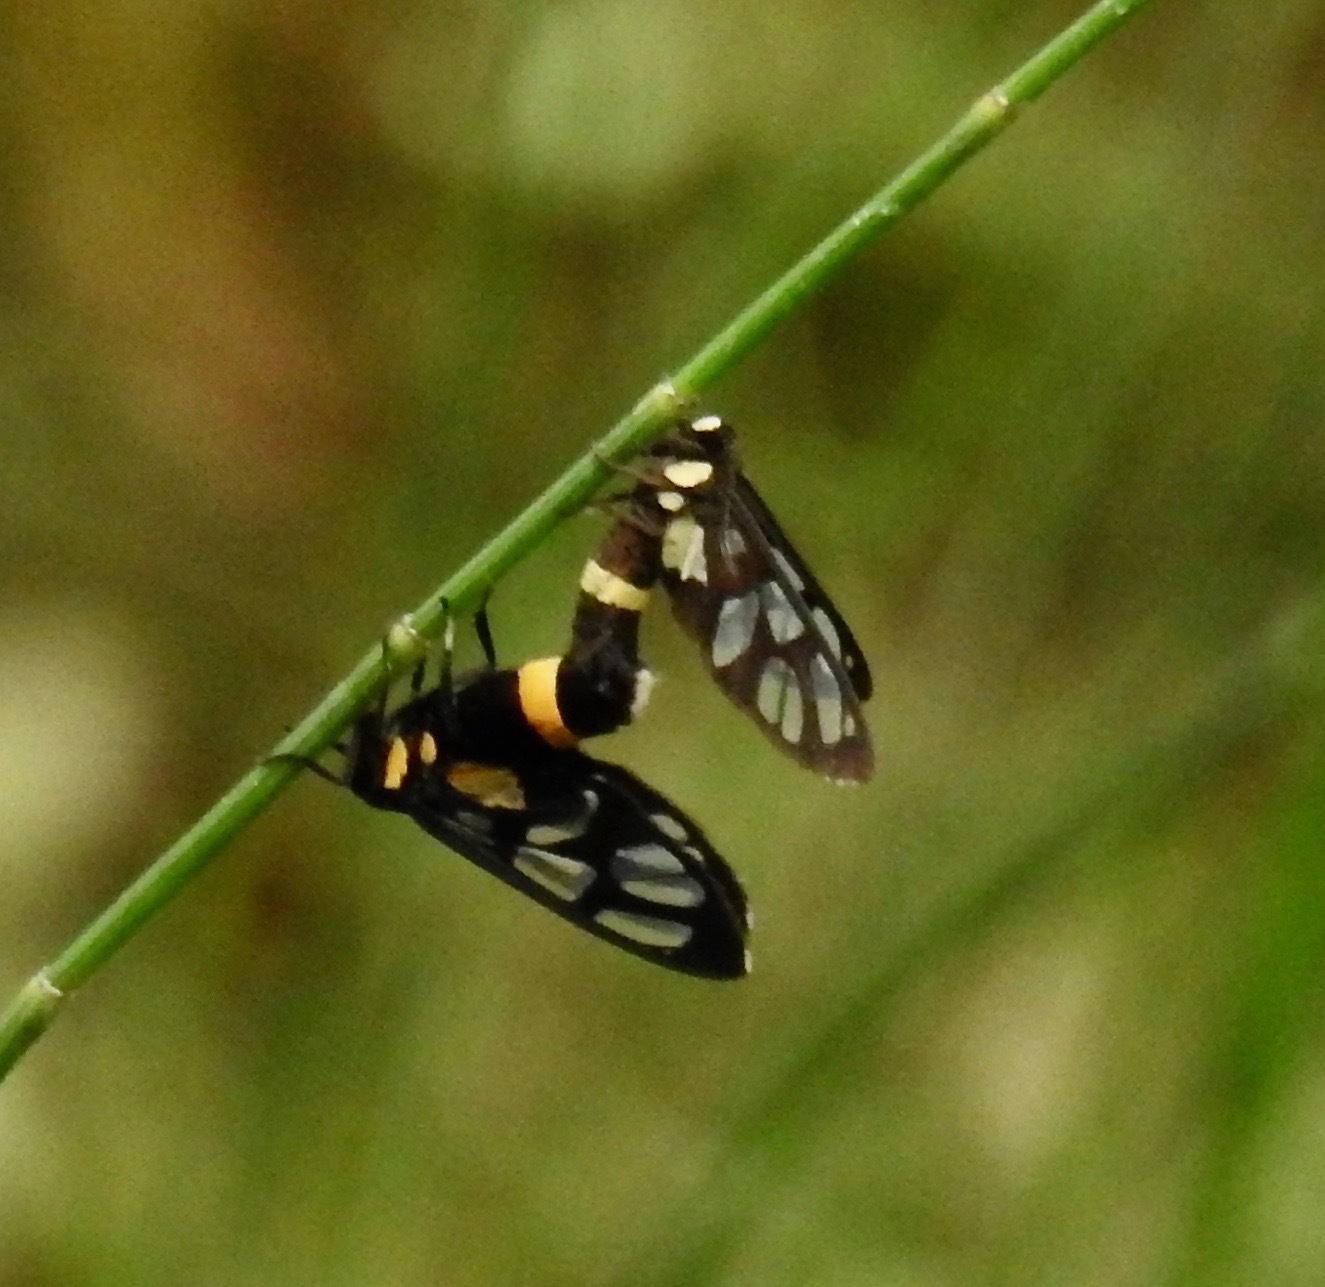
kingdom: Animalia
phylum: Arthropoda
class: Insecta
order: Lepidoptera
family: Erebidae
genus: Amata
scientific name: Amata sperbius
